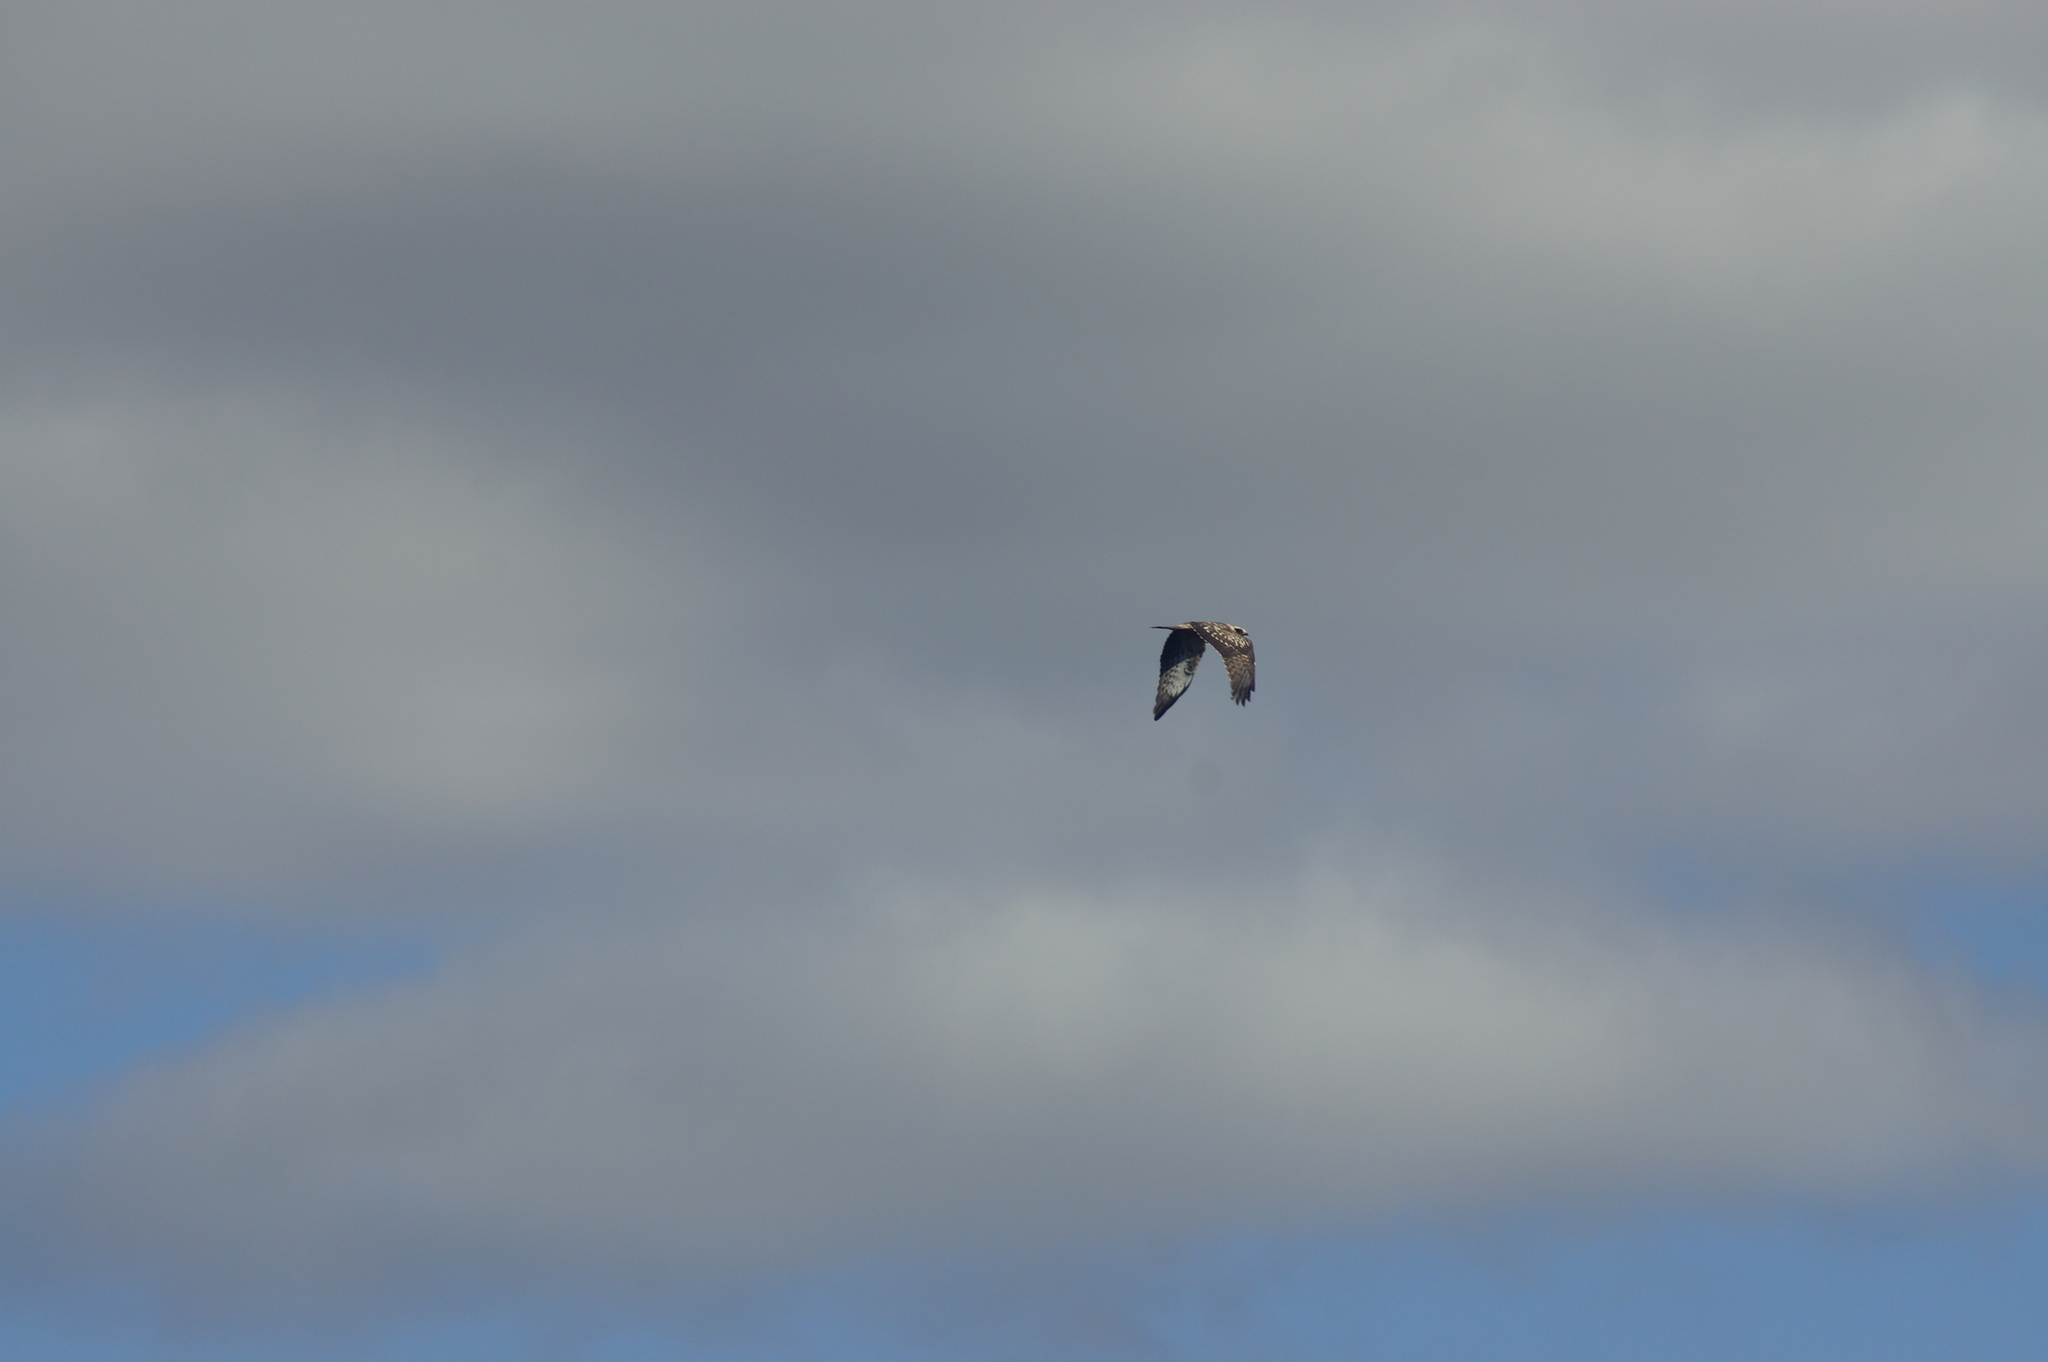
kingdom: Animalia
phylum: Chordata
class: Aves
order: Accipitriformes
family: Accipitridae
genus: Pernis
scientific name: Pernis apivorus
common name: European honey buzzard
